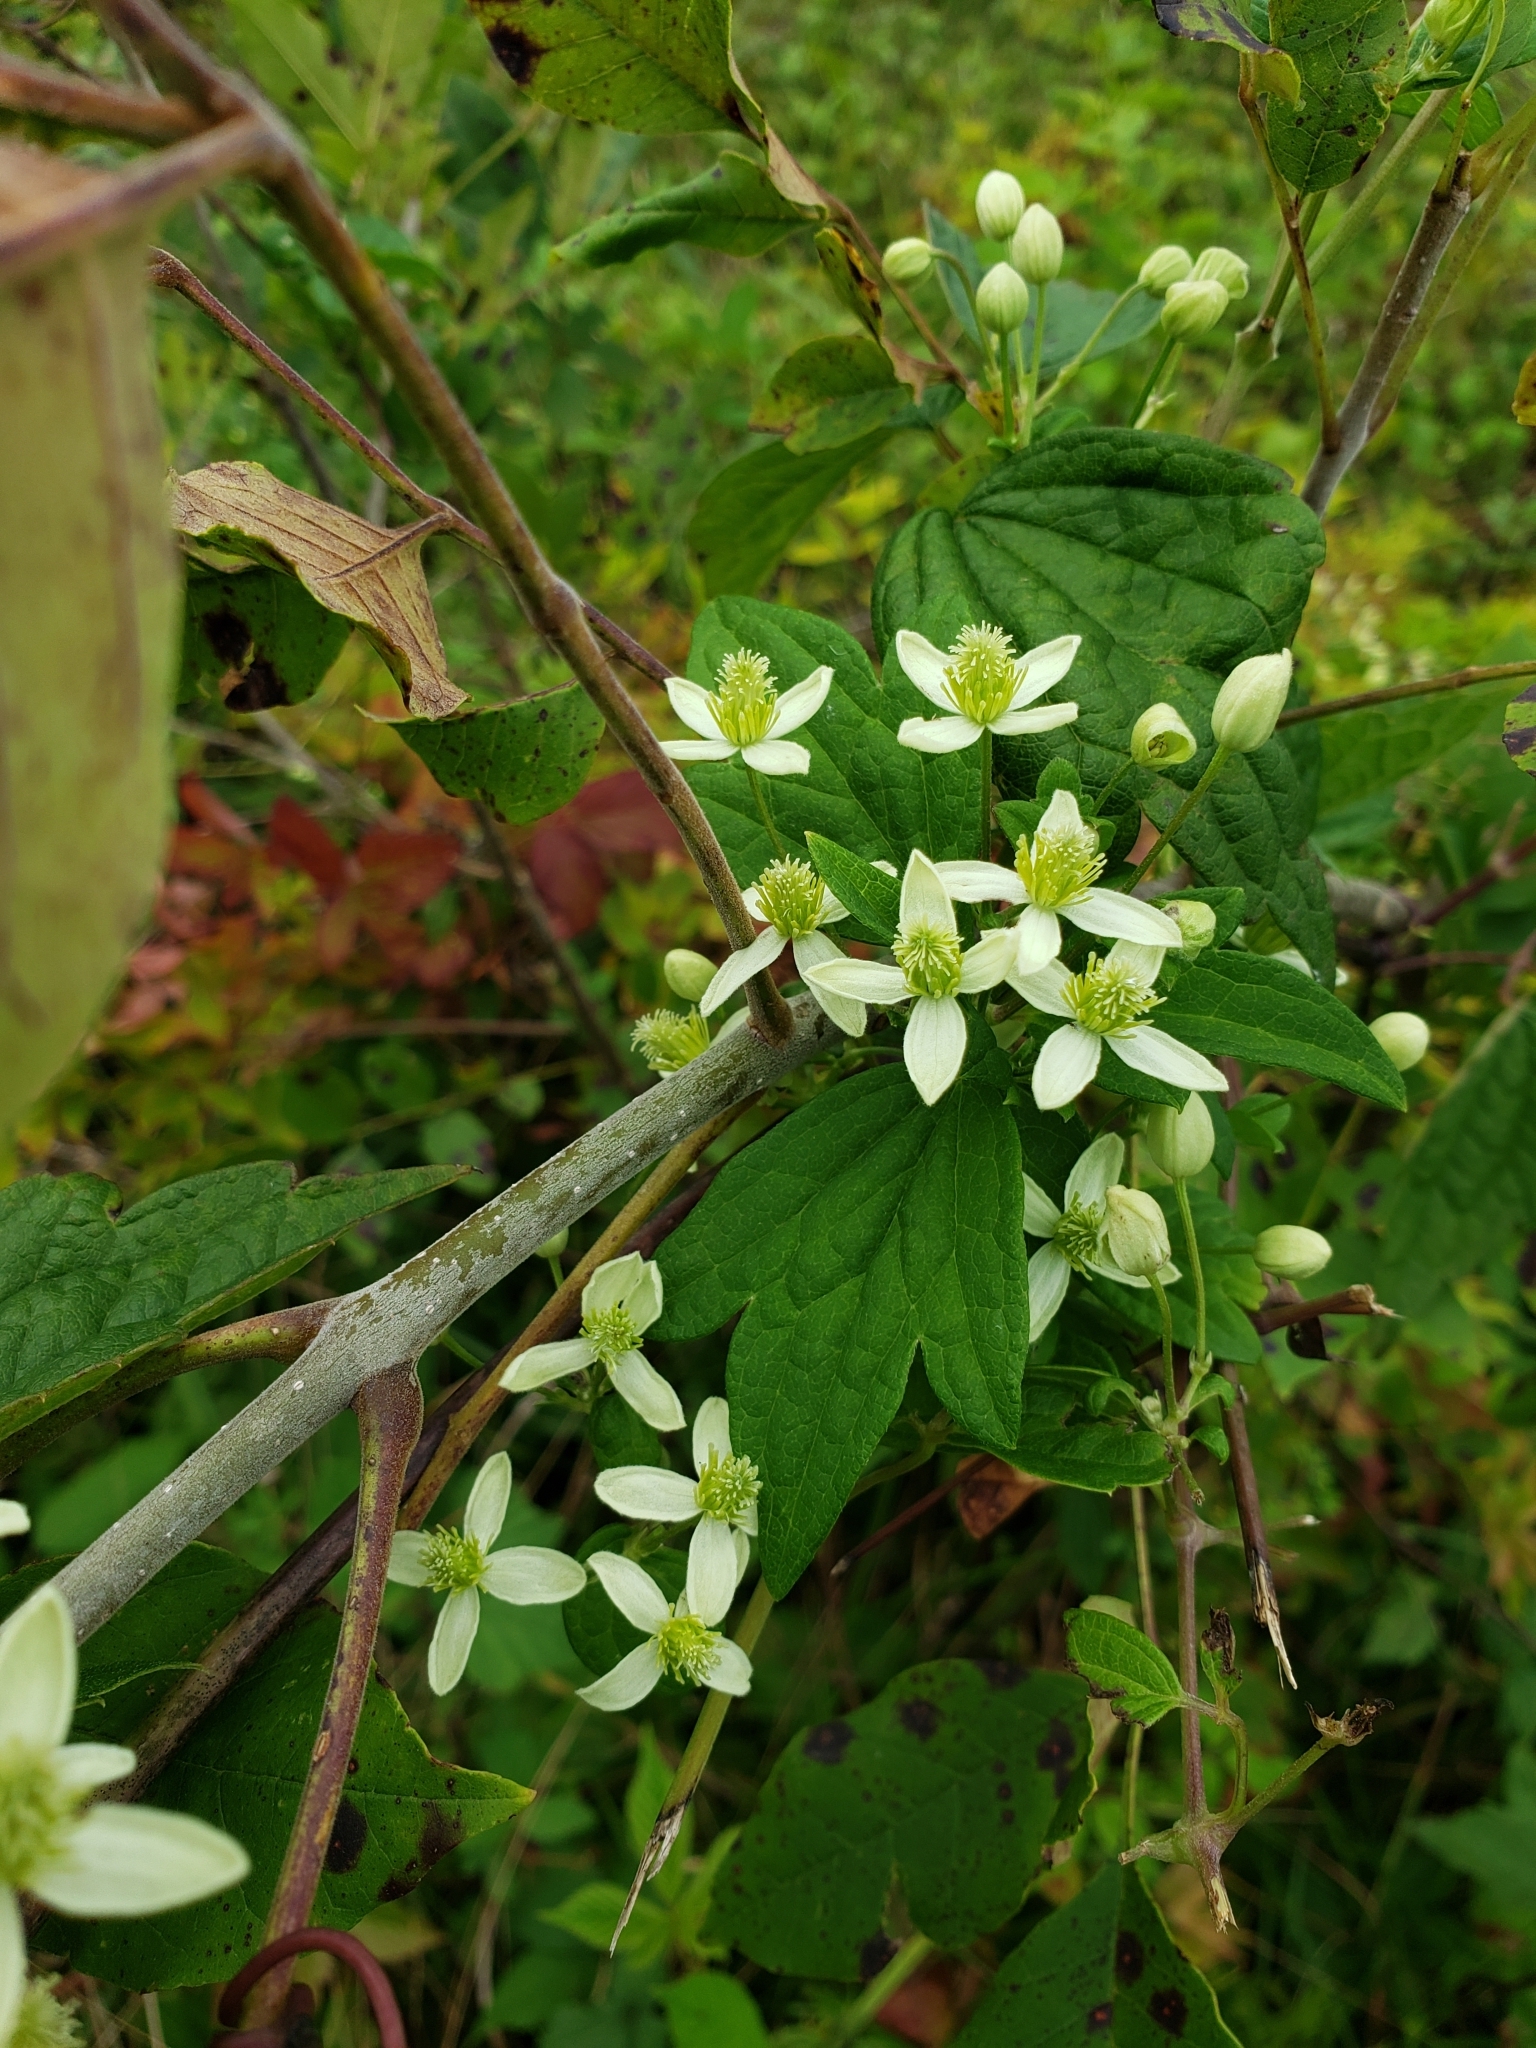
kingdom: Plantae
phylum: Tracheophyta
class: Magnoliopsida
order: Ranunculales
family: Ranunculaceae
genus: Clematis
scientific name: Clematis virginiana
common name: Virgin's-bower
